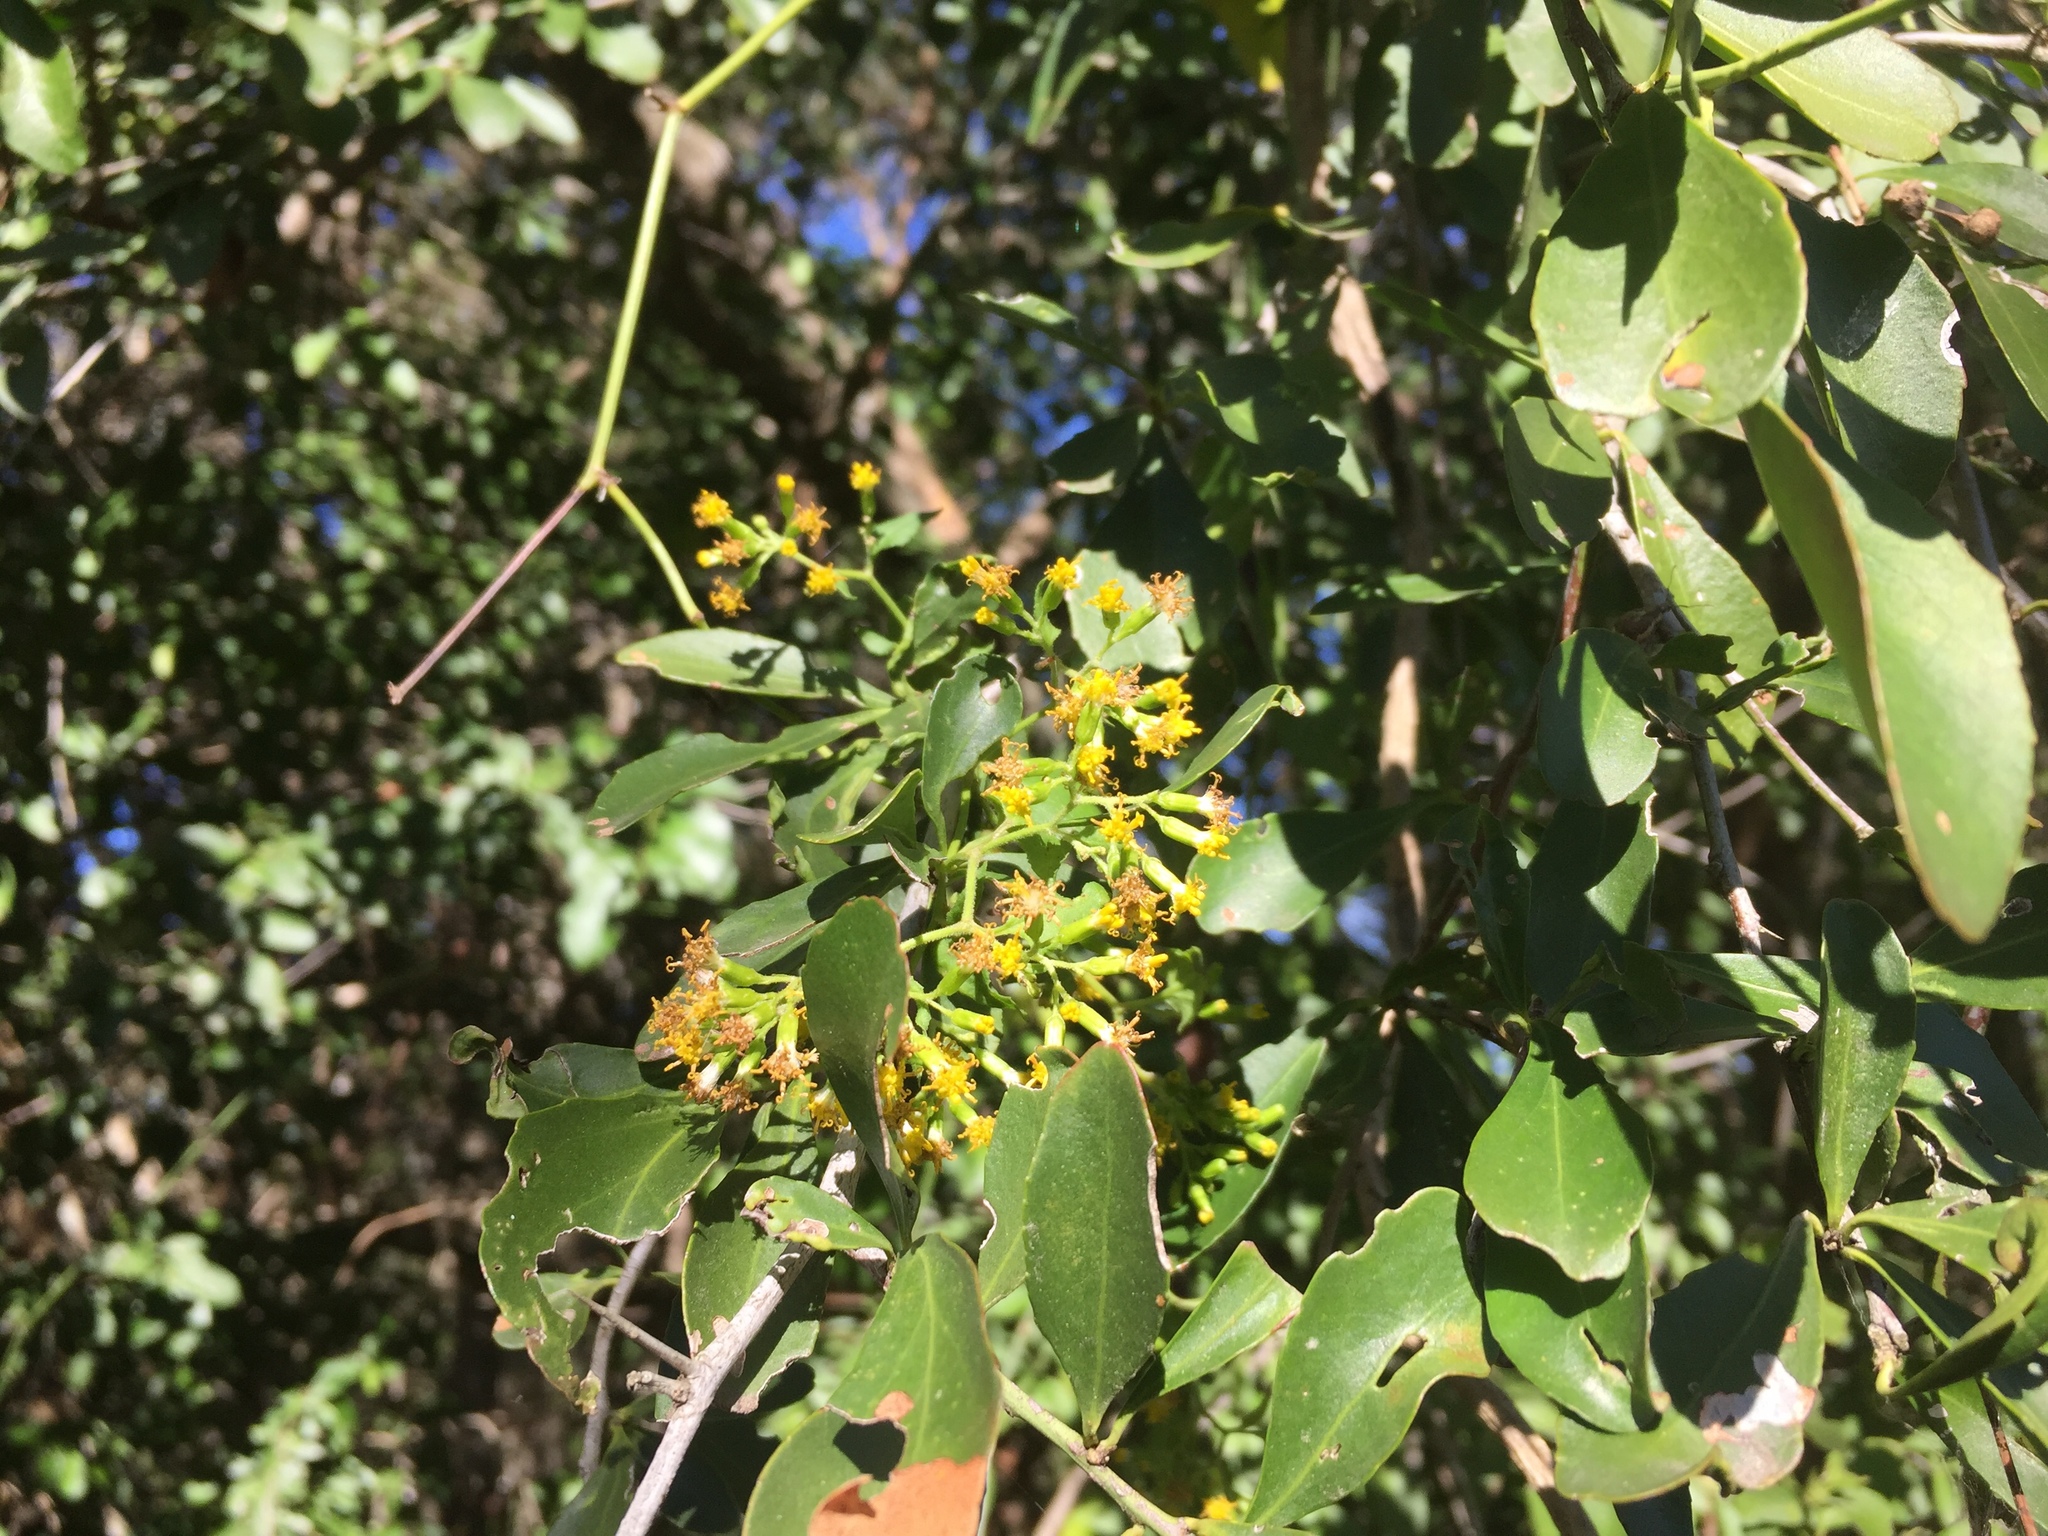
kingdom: Plantae
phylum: Tracheophyta
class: Magnoliopsida
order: Asterales
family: Asteraceae
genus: Senecio
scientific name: Senecio deltoideus
